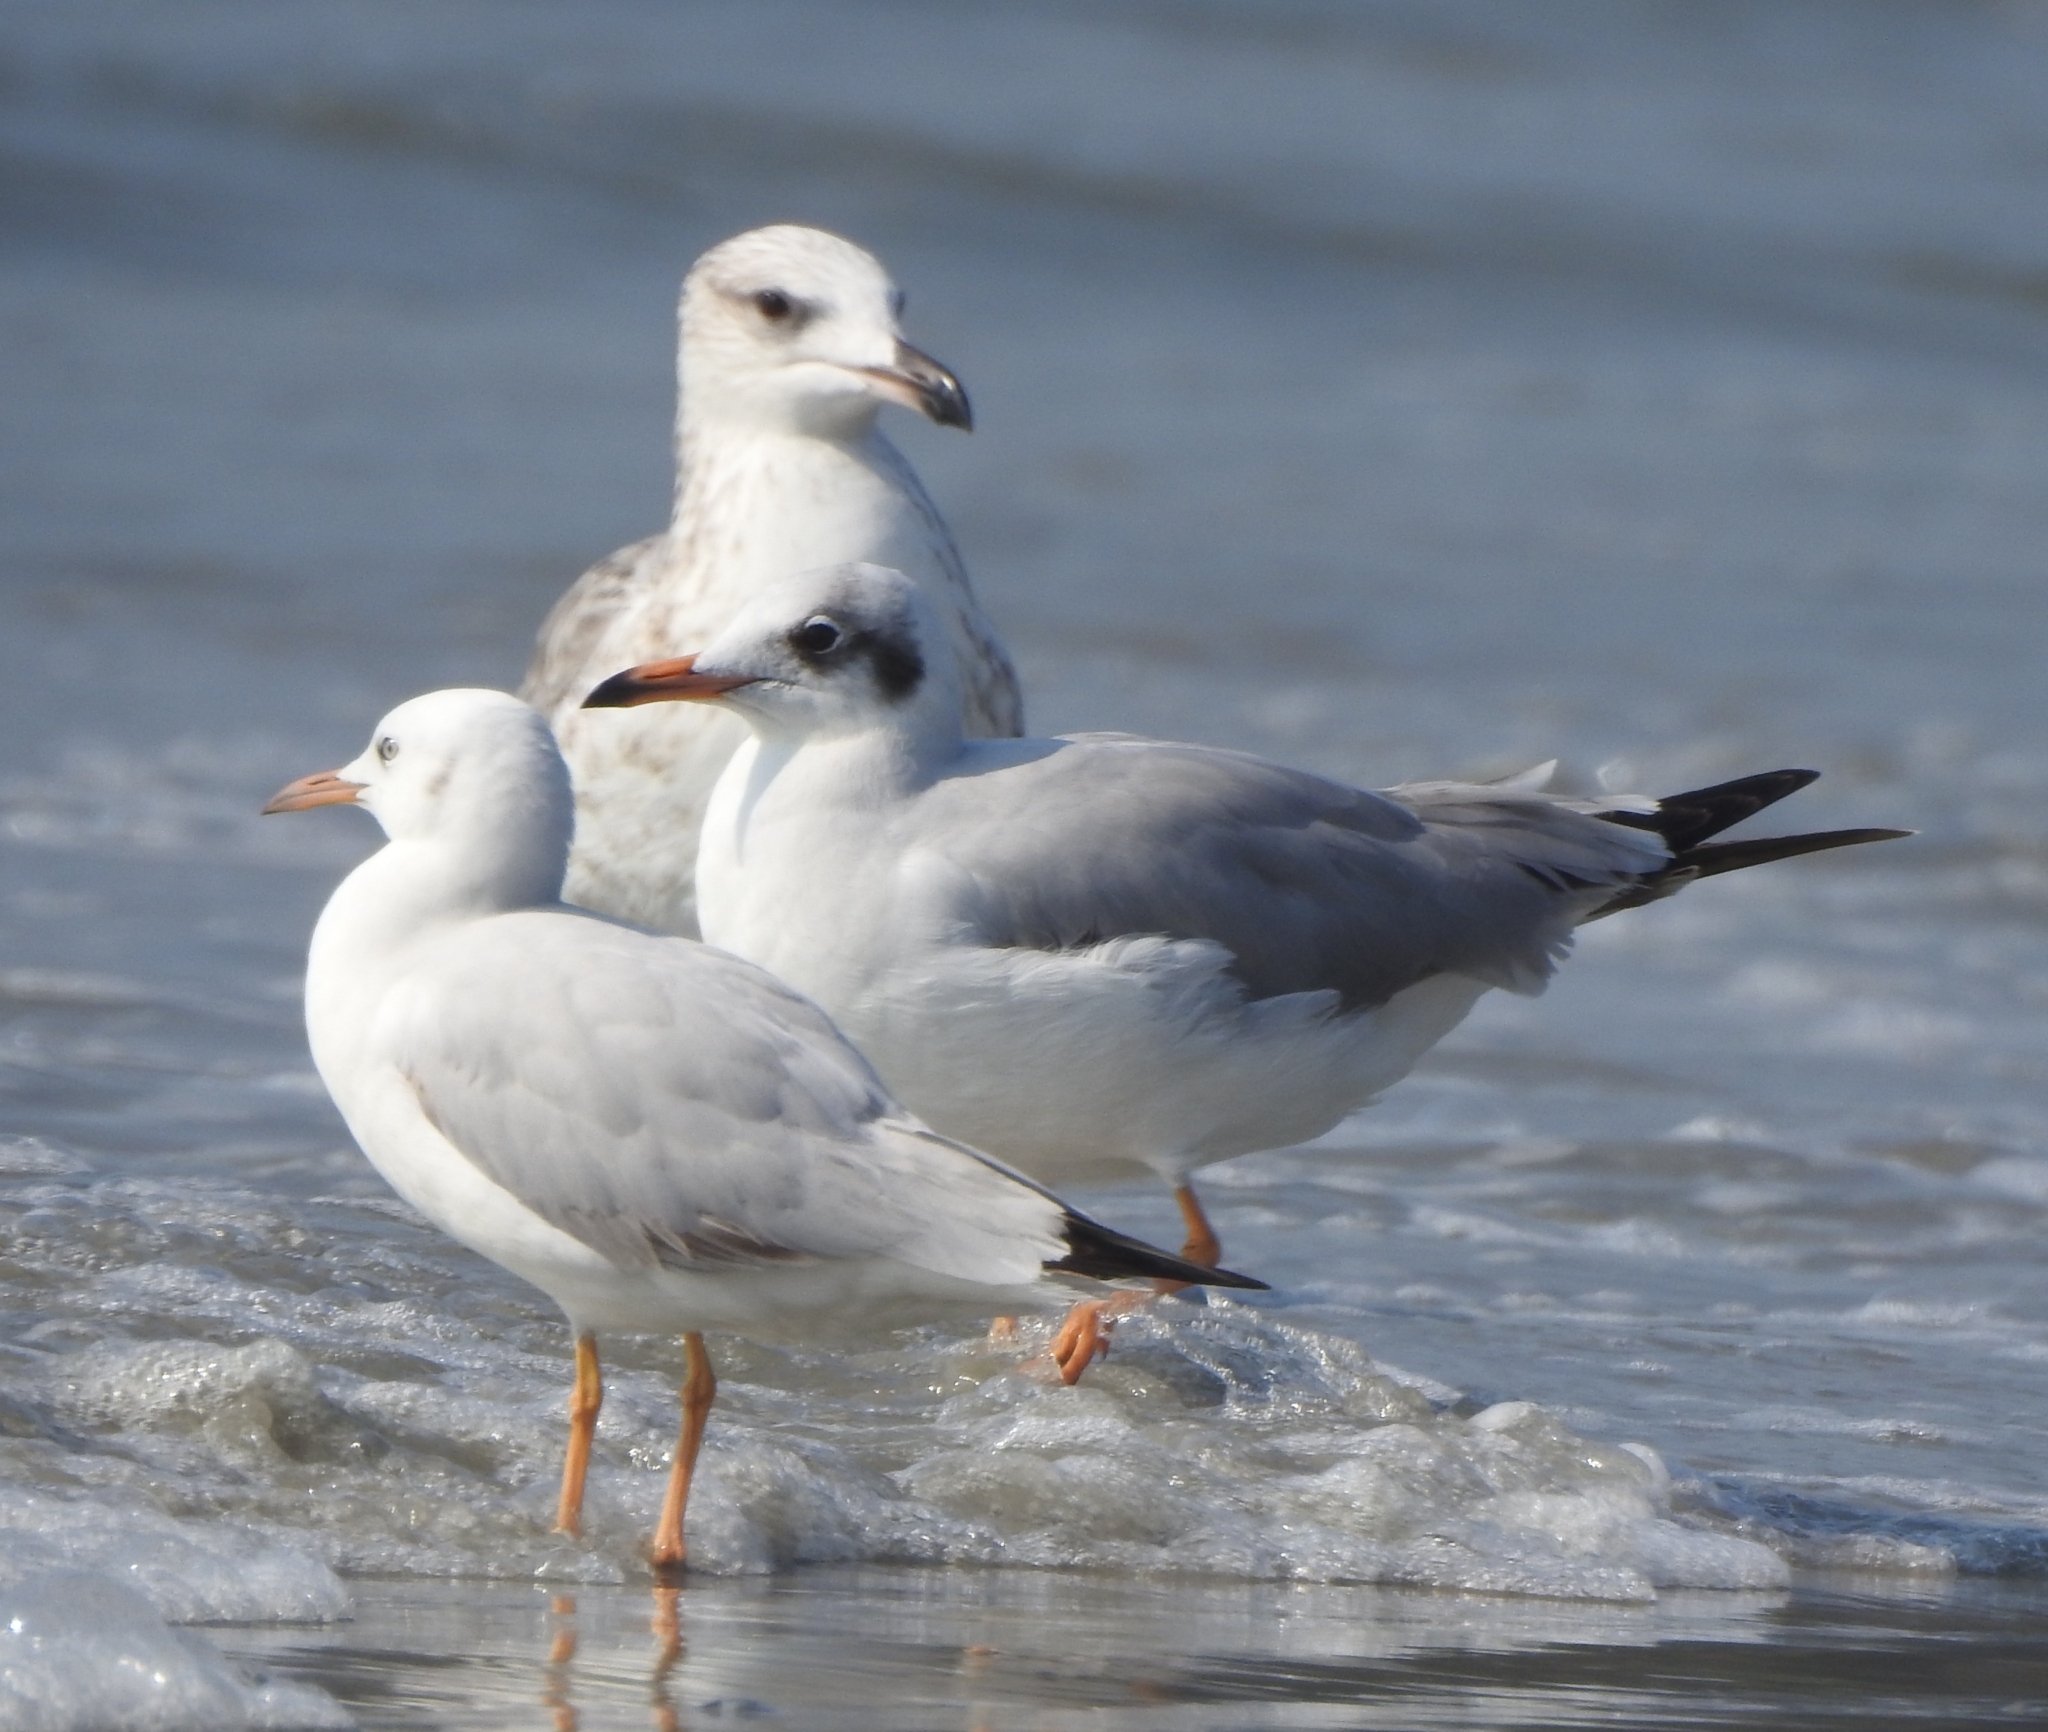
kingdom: Animalia
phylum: Chordata
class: Aves
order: Charadriiformes
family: Laridae
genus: Chroicocephalus
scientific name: Chroicocephalus brunnicephalus
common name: Brown-headed gull
